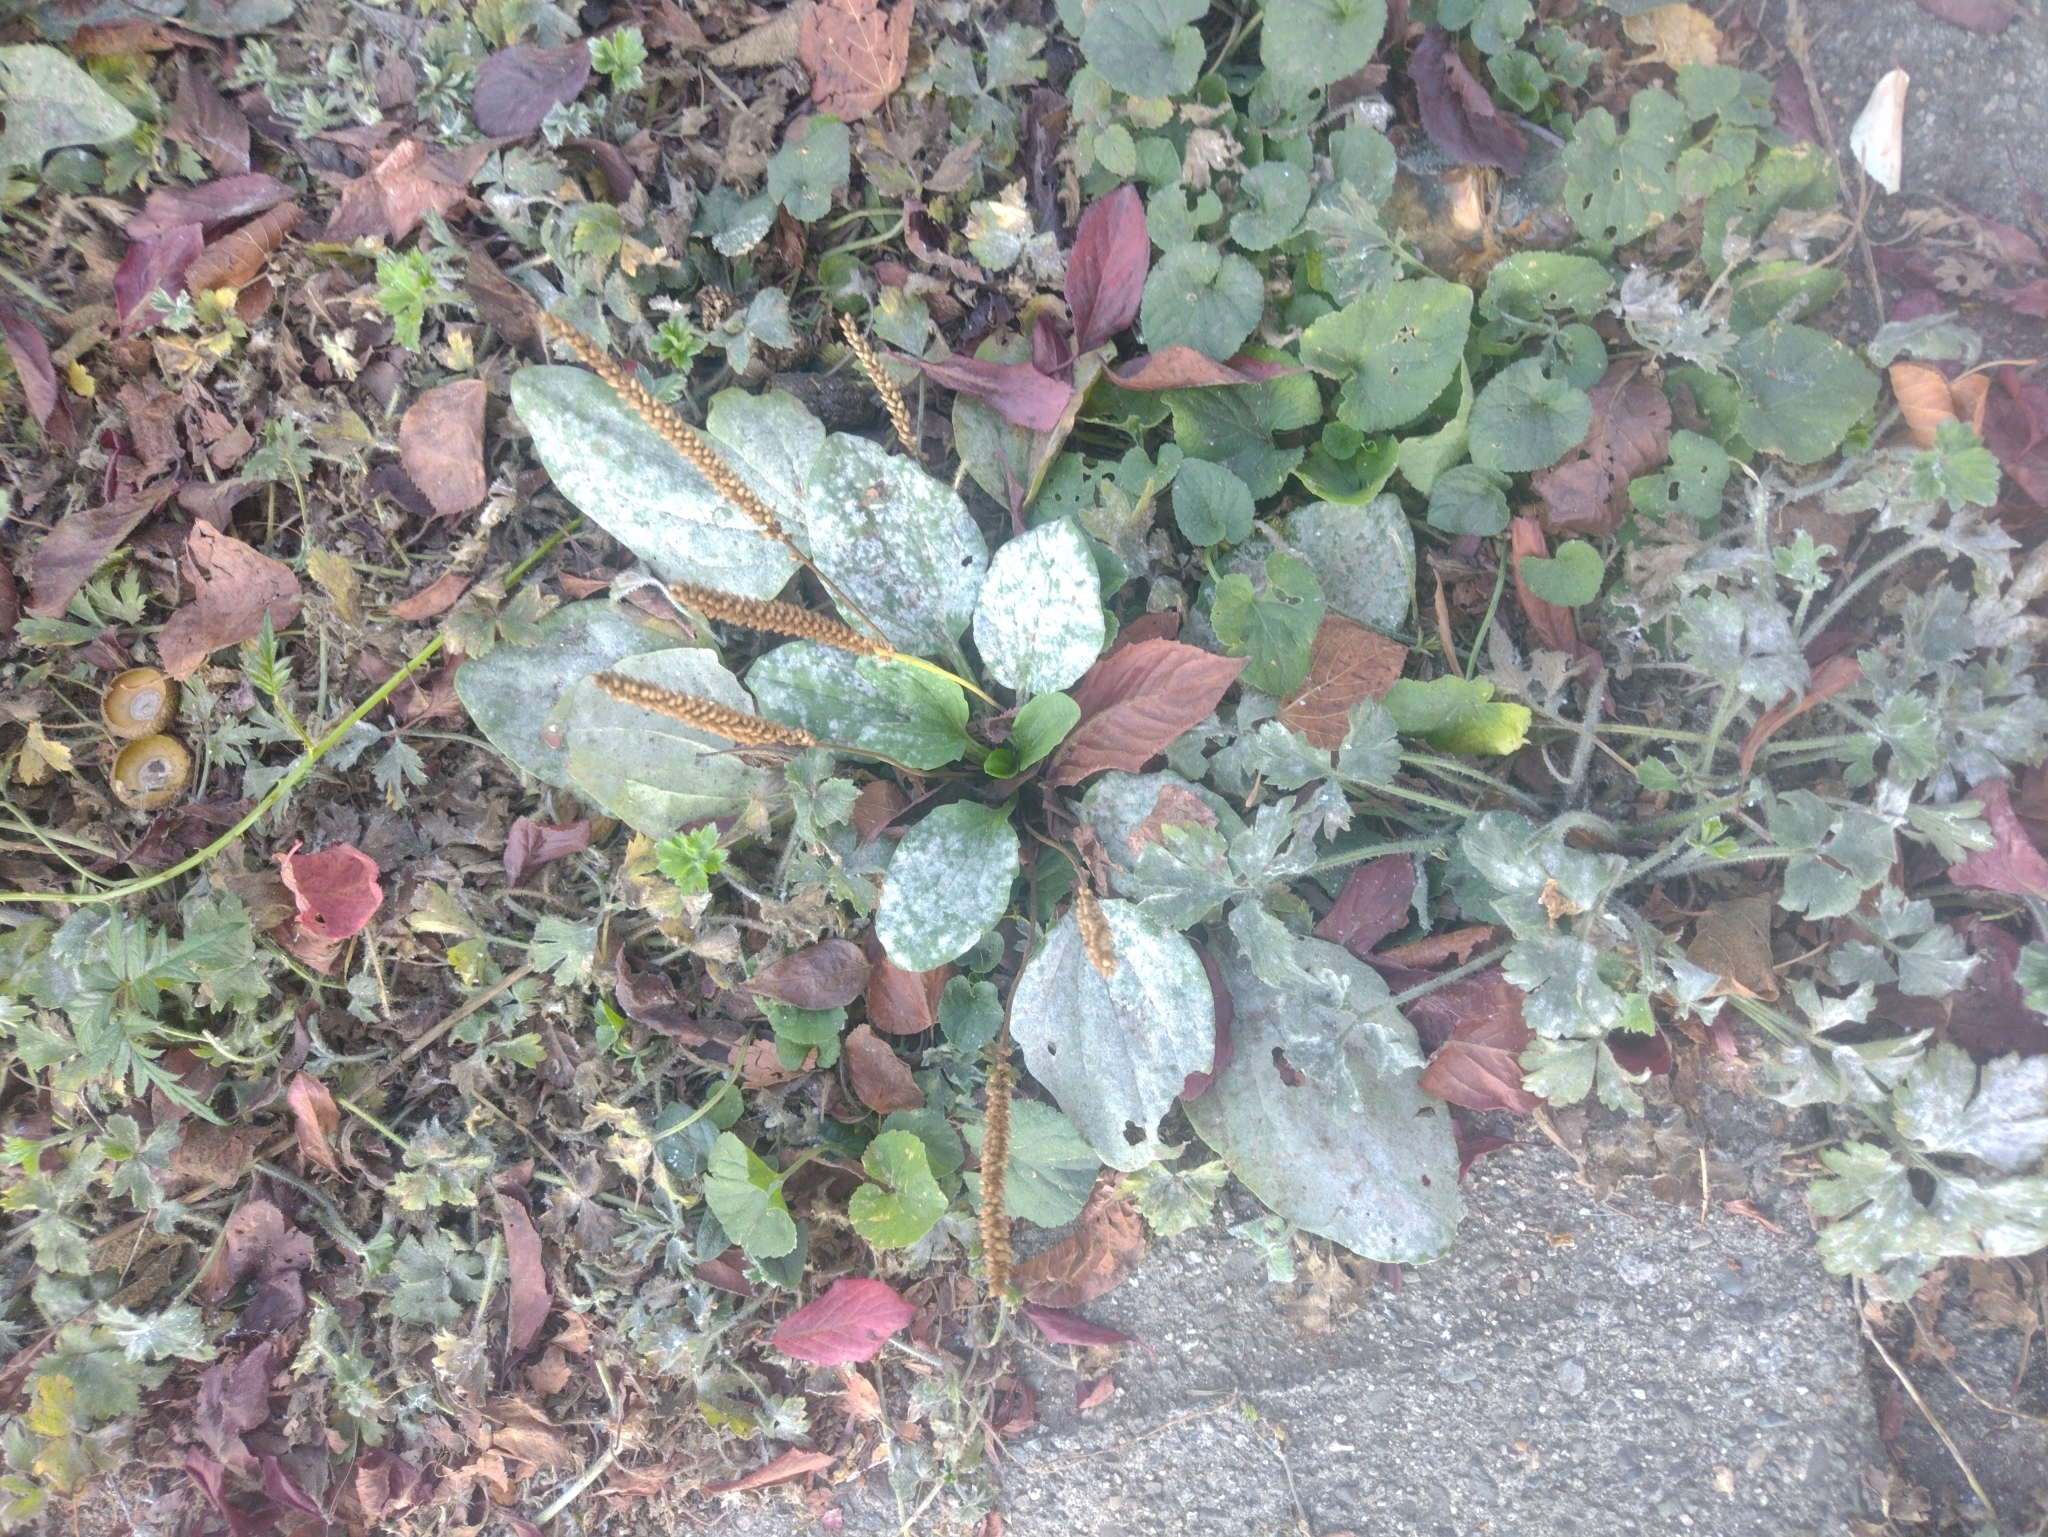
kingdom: Plantae
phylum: Tracheophyta
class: Magnoliopsida
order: Lamiales
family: Plantaginaceae
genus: Plantago
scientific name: Plantago major
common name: Common plantain
